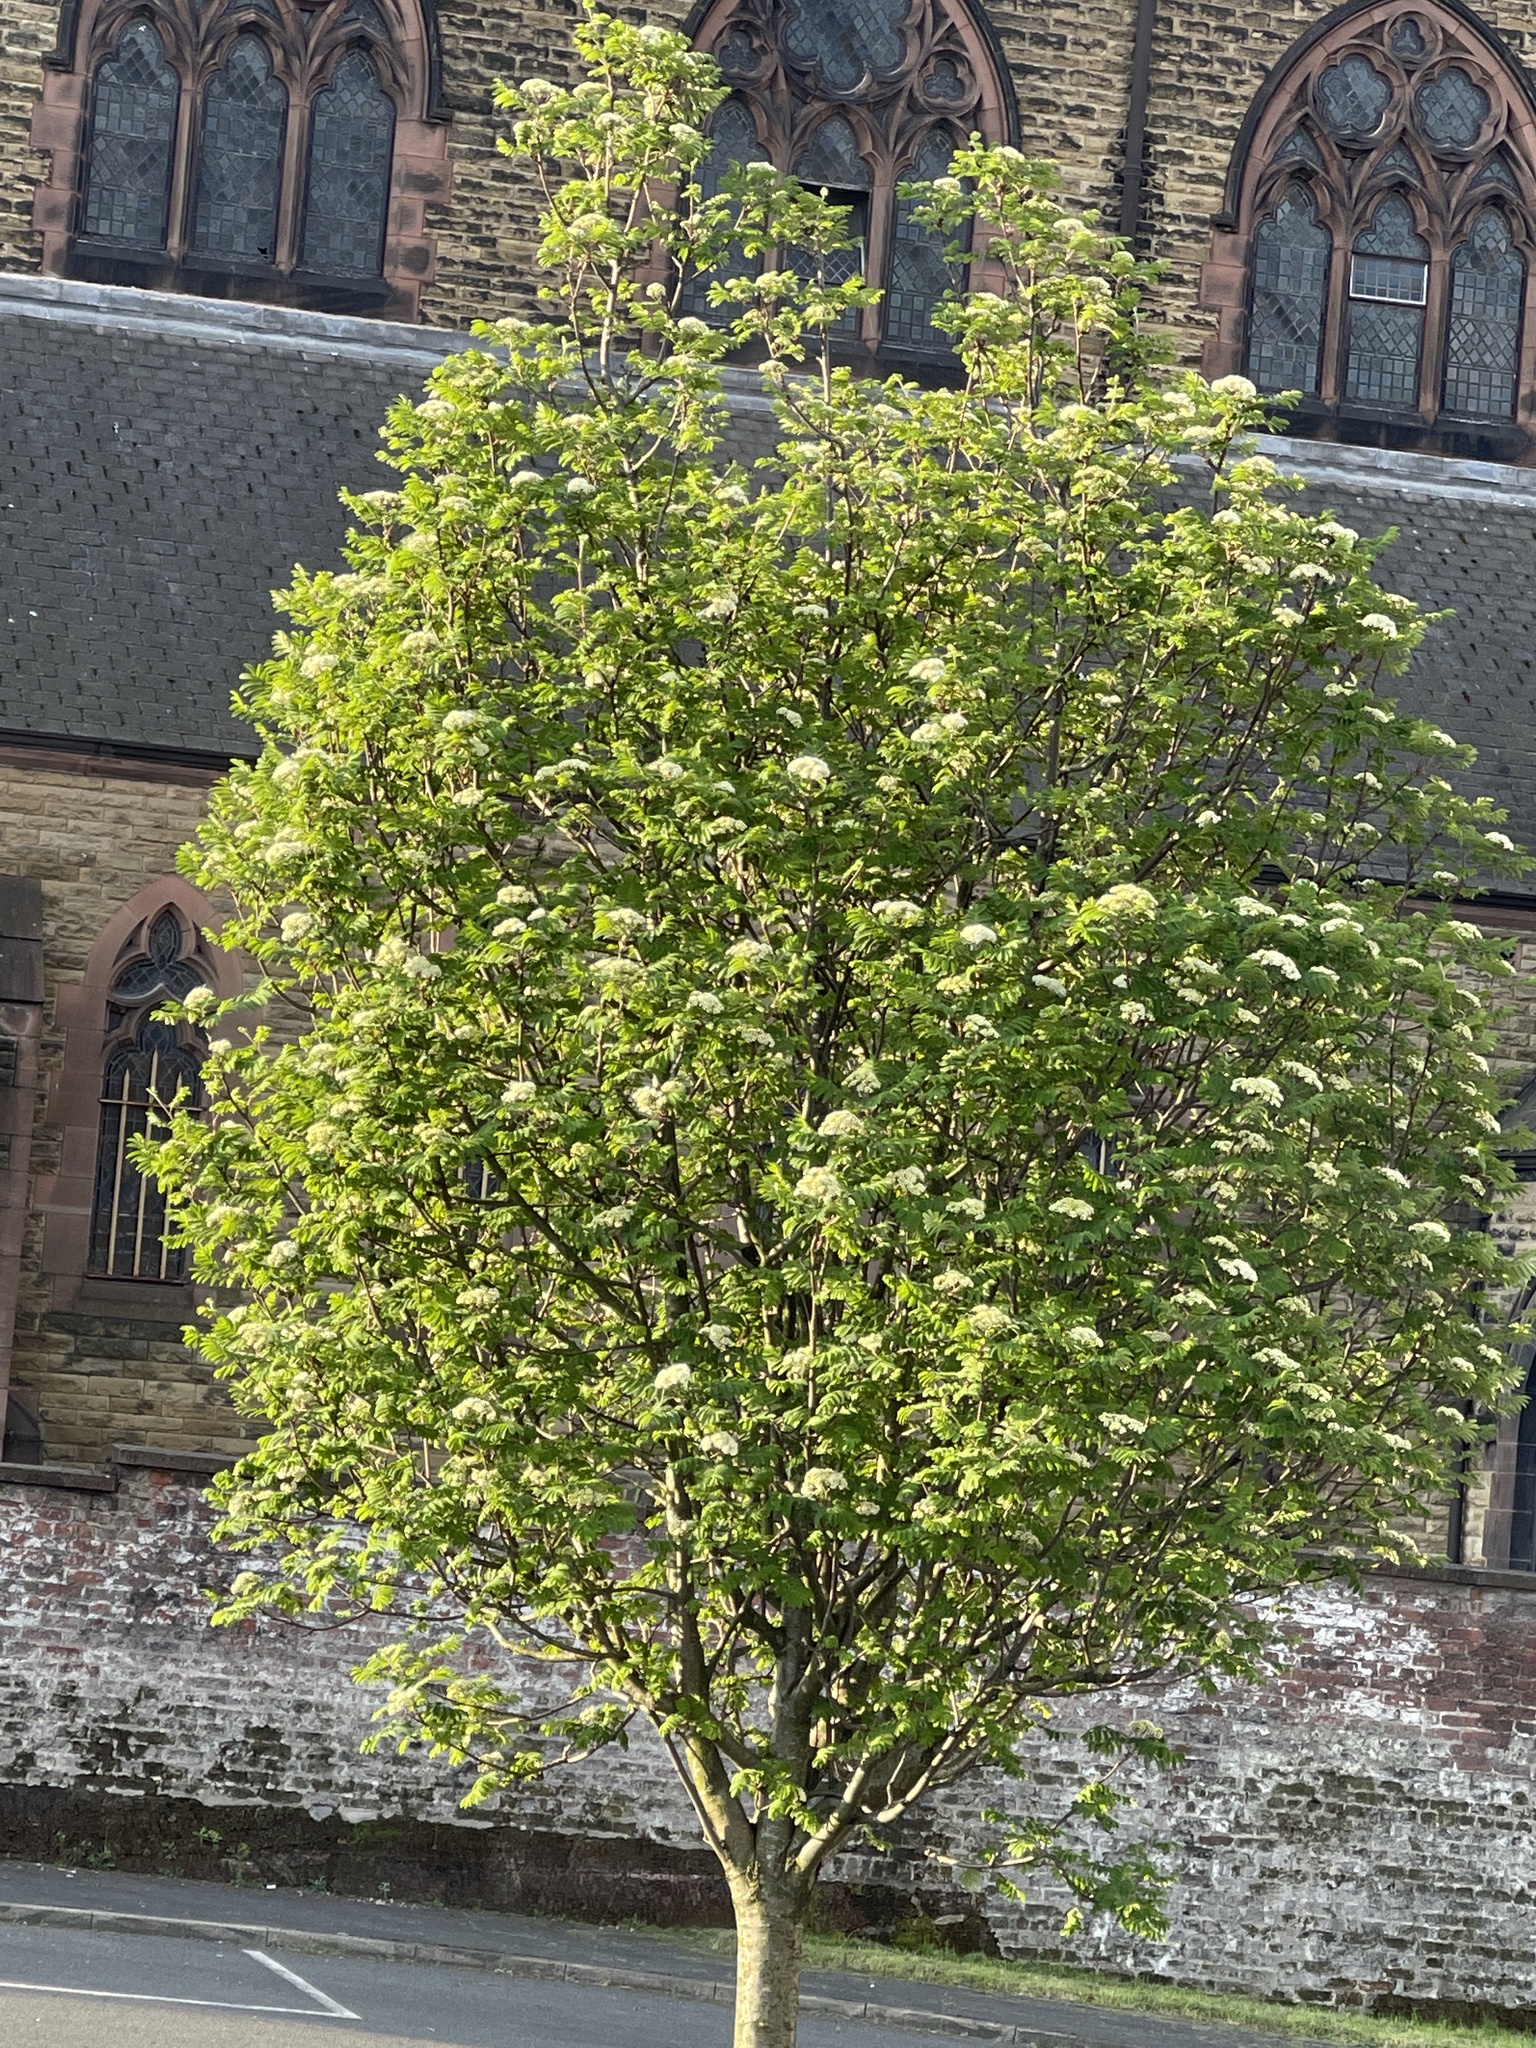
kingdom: Plantae
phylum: Tracheophyta
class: Magnoliopsida
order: Rosales
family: Rosaceae
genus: Sorbus
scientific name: Sorbus aucuparia
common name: Rowan
